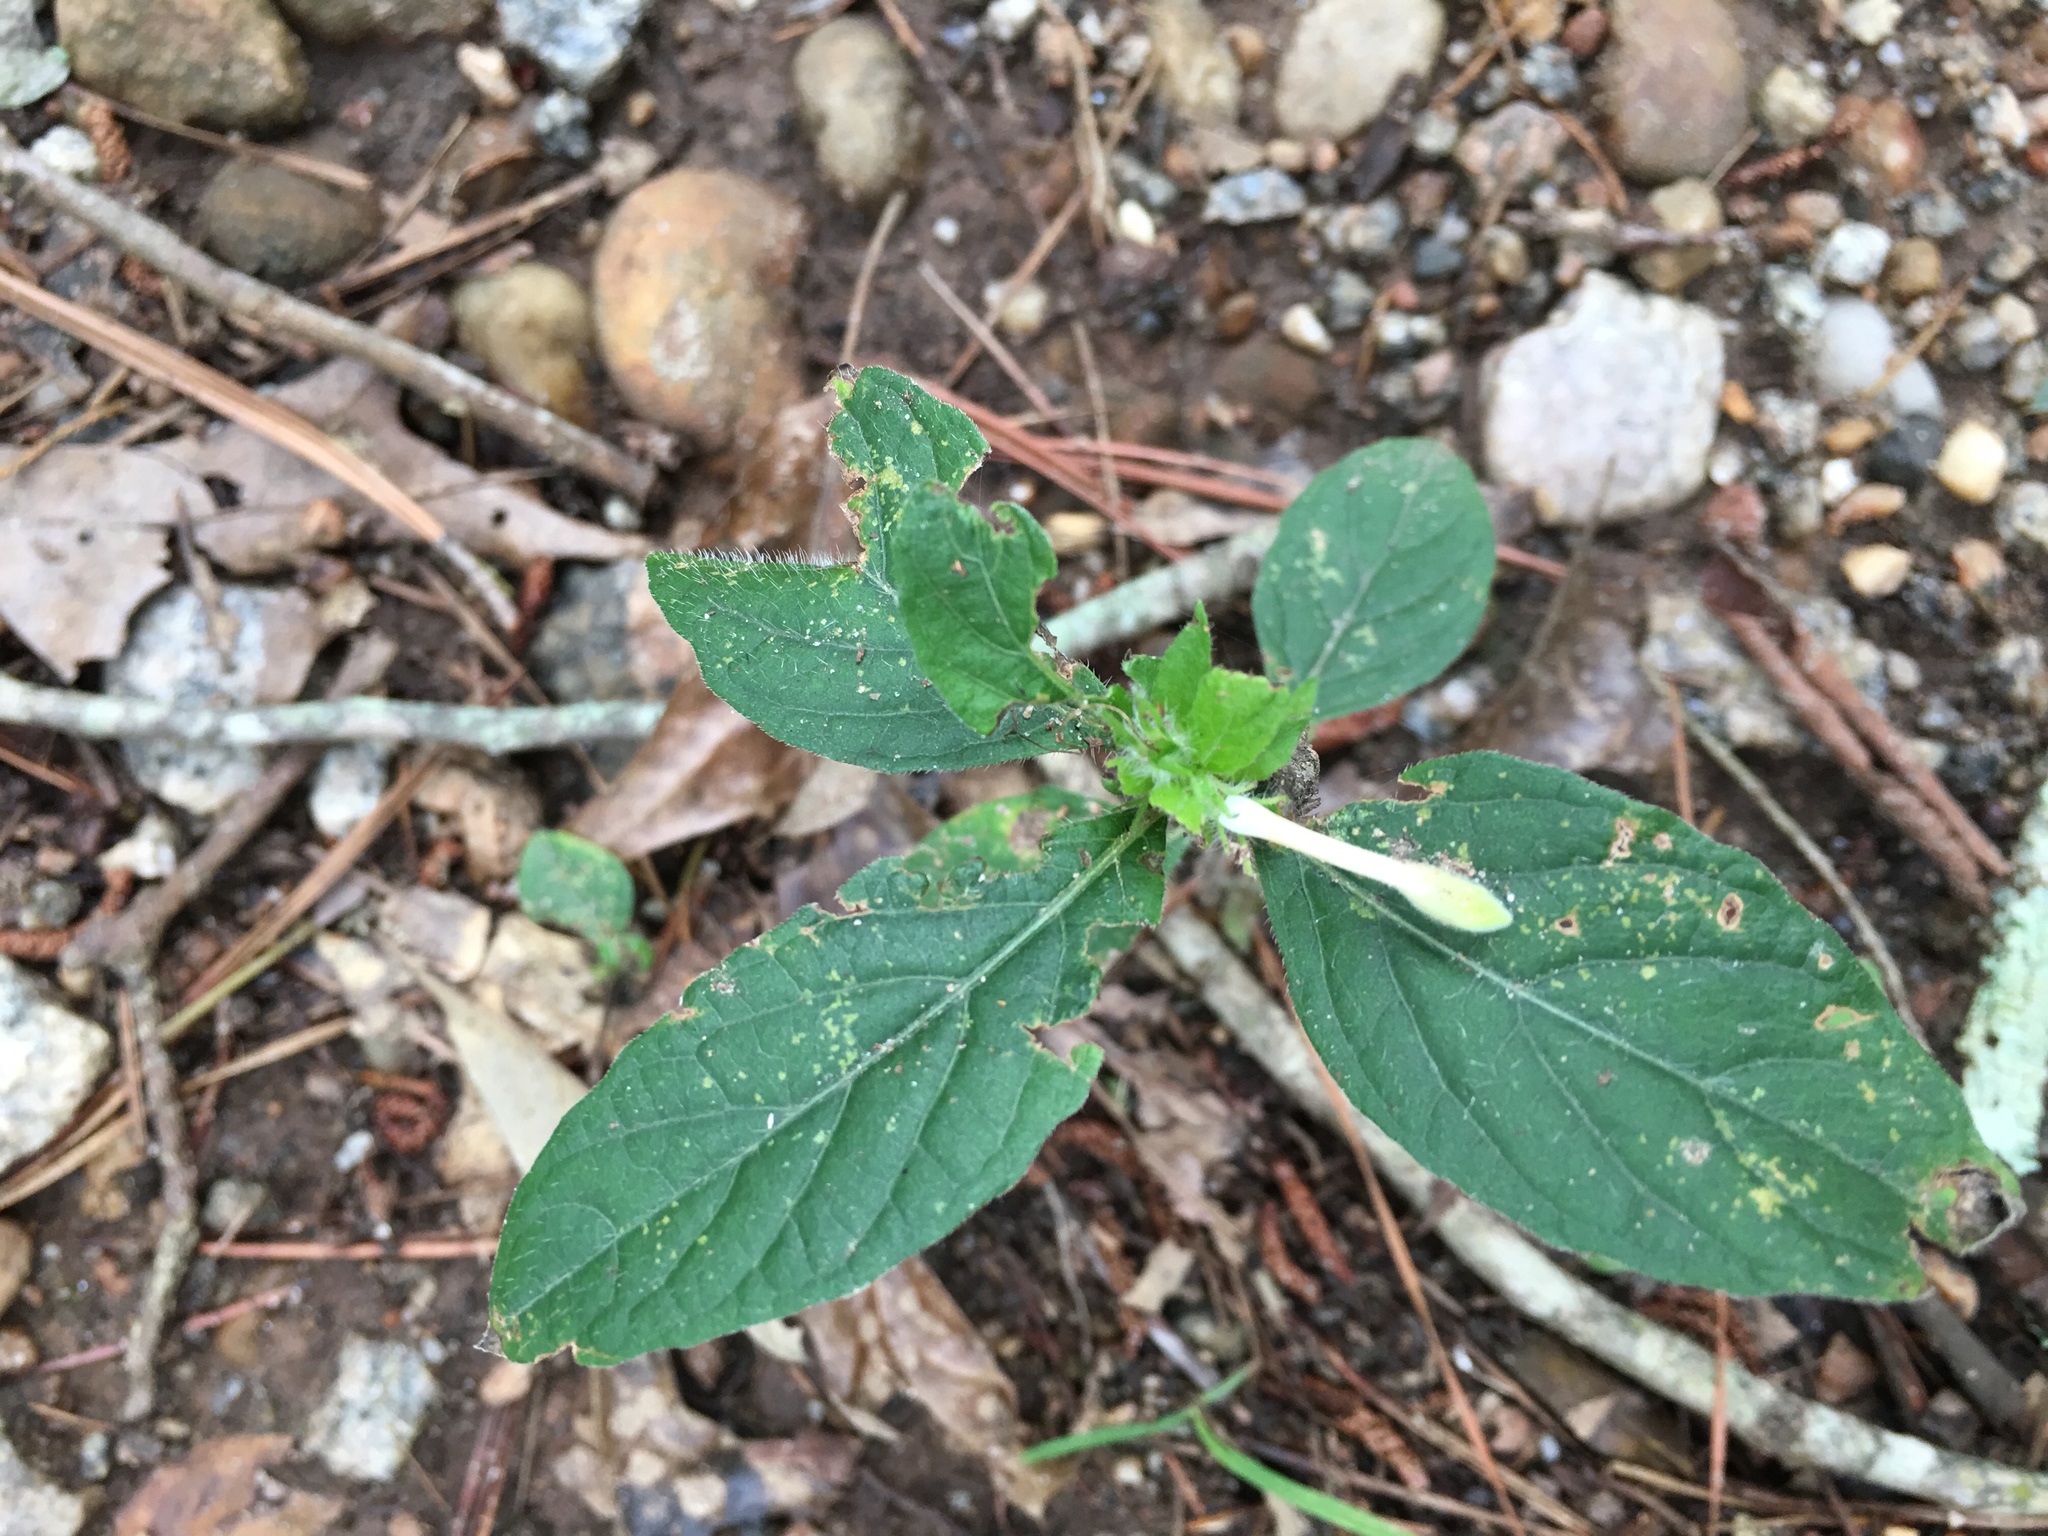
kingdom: Plantae
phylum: Tracheophyta
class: Magnoliopsida
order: Lamiales
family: Acanthaceae
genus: Ruellia
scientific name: Ruellia caroliniensis
